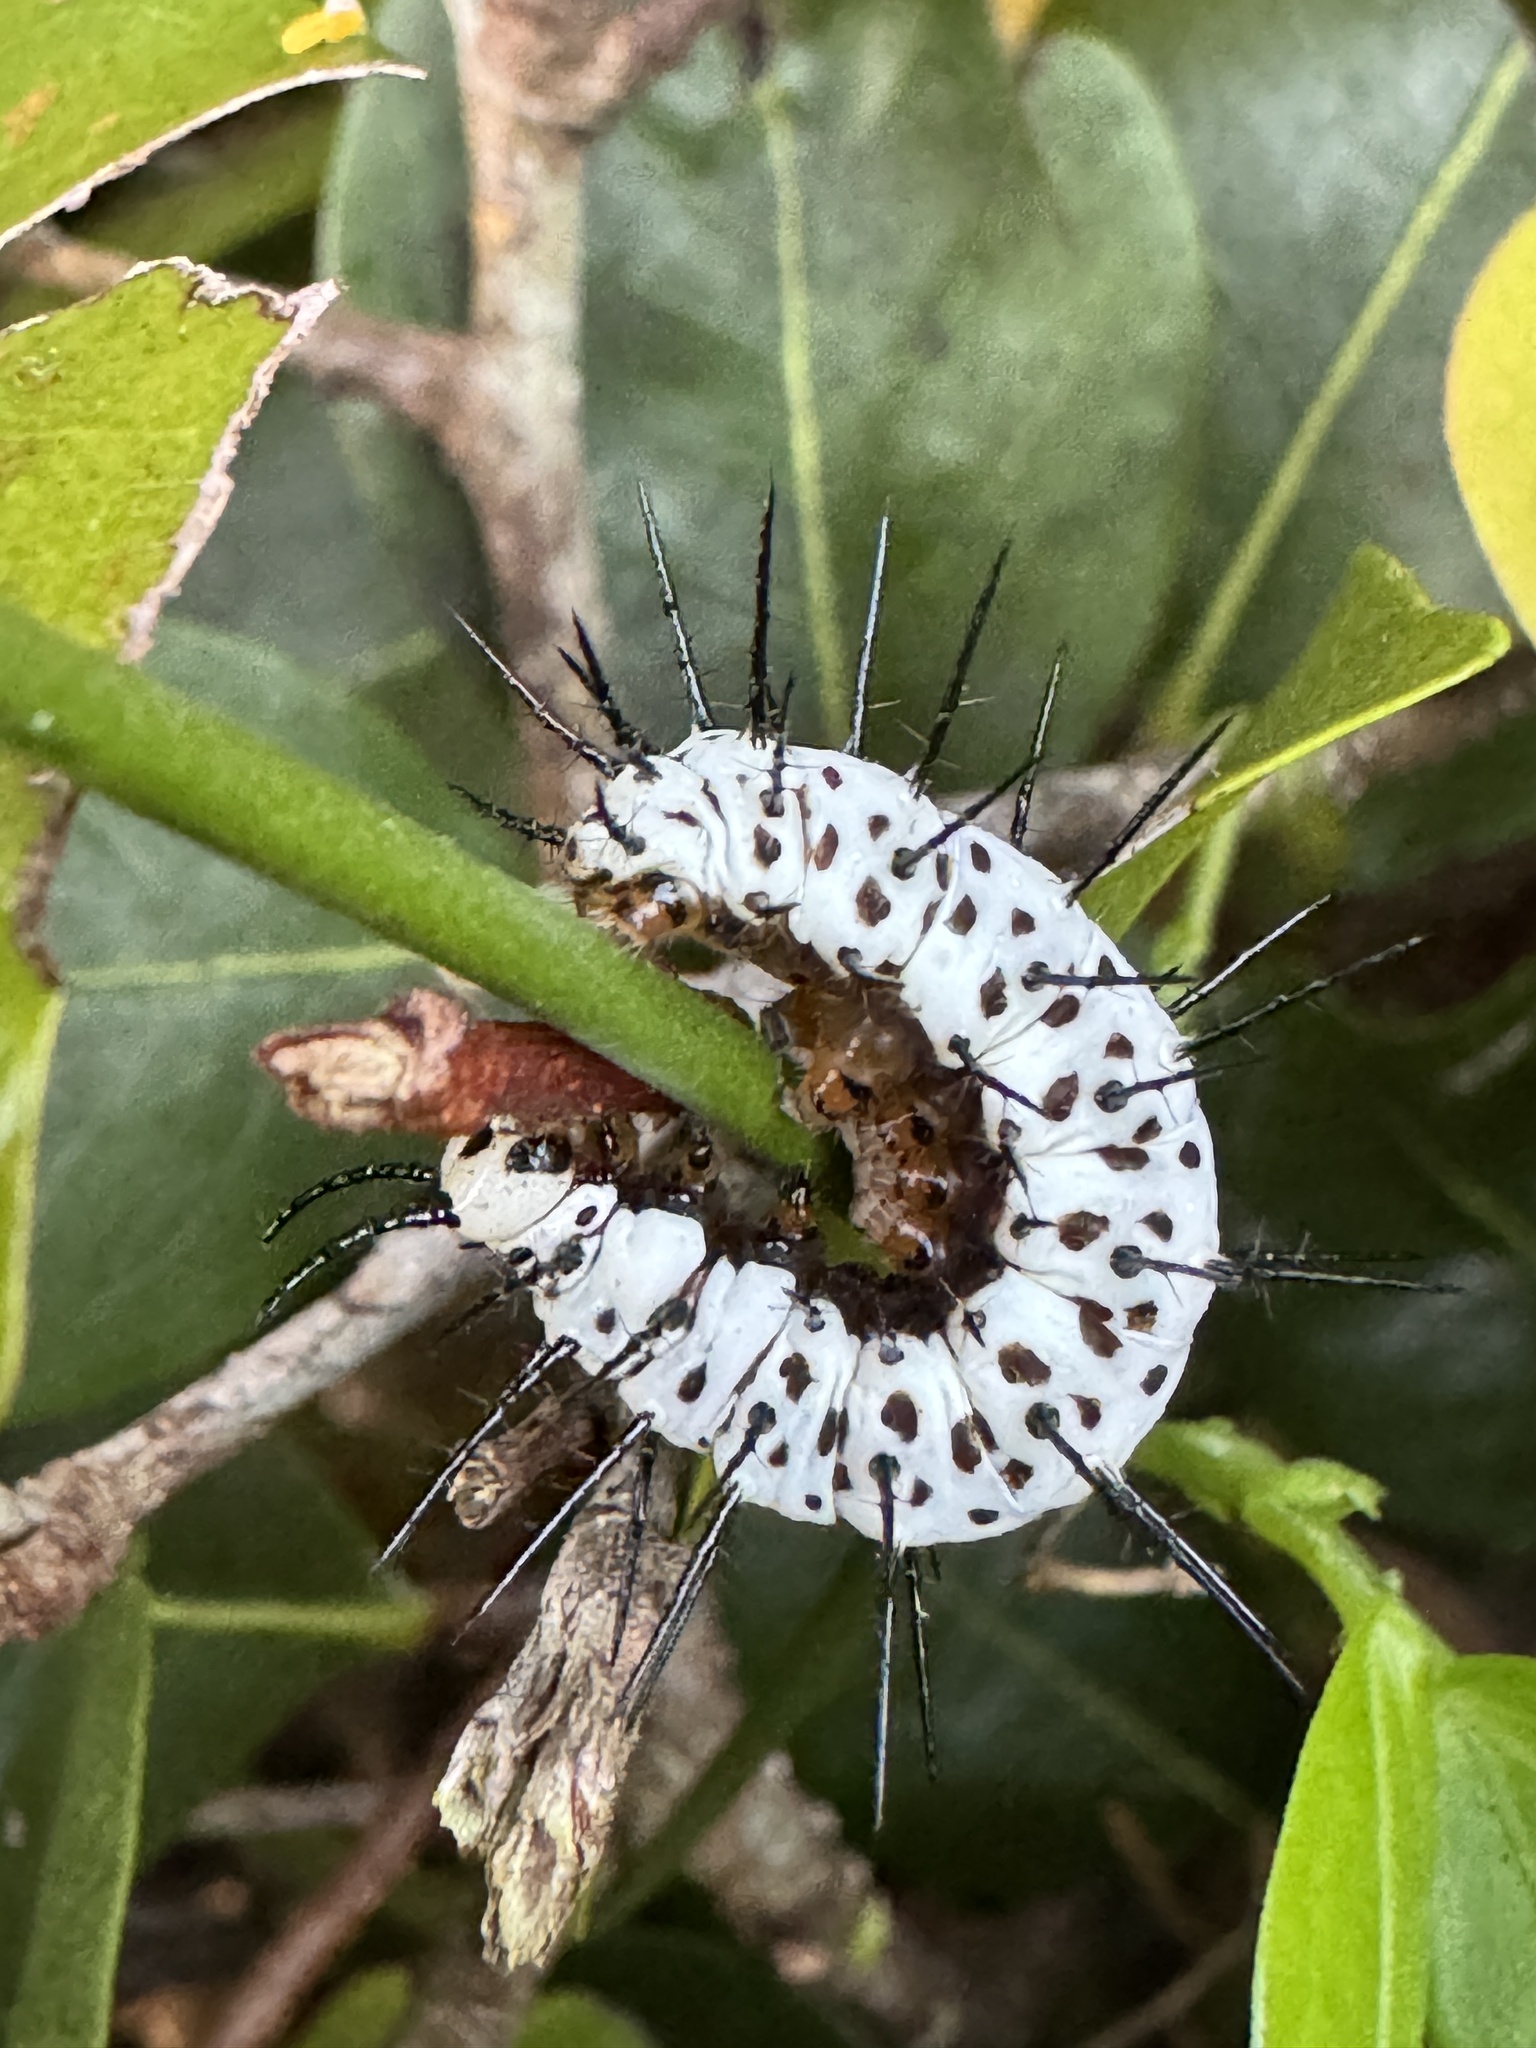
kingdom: Animalia
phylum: Arthropoda
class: Insecta
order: Lepidoptera
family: Nymphalidae
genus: Heliconius
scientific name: Heliconius charithonia
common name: Zebra long wing
